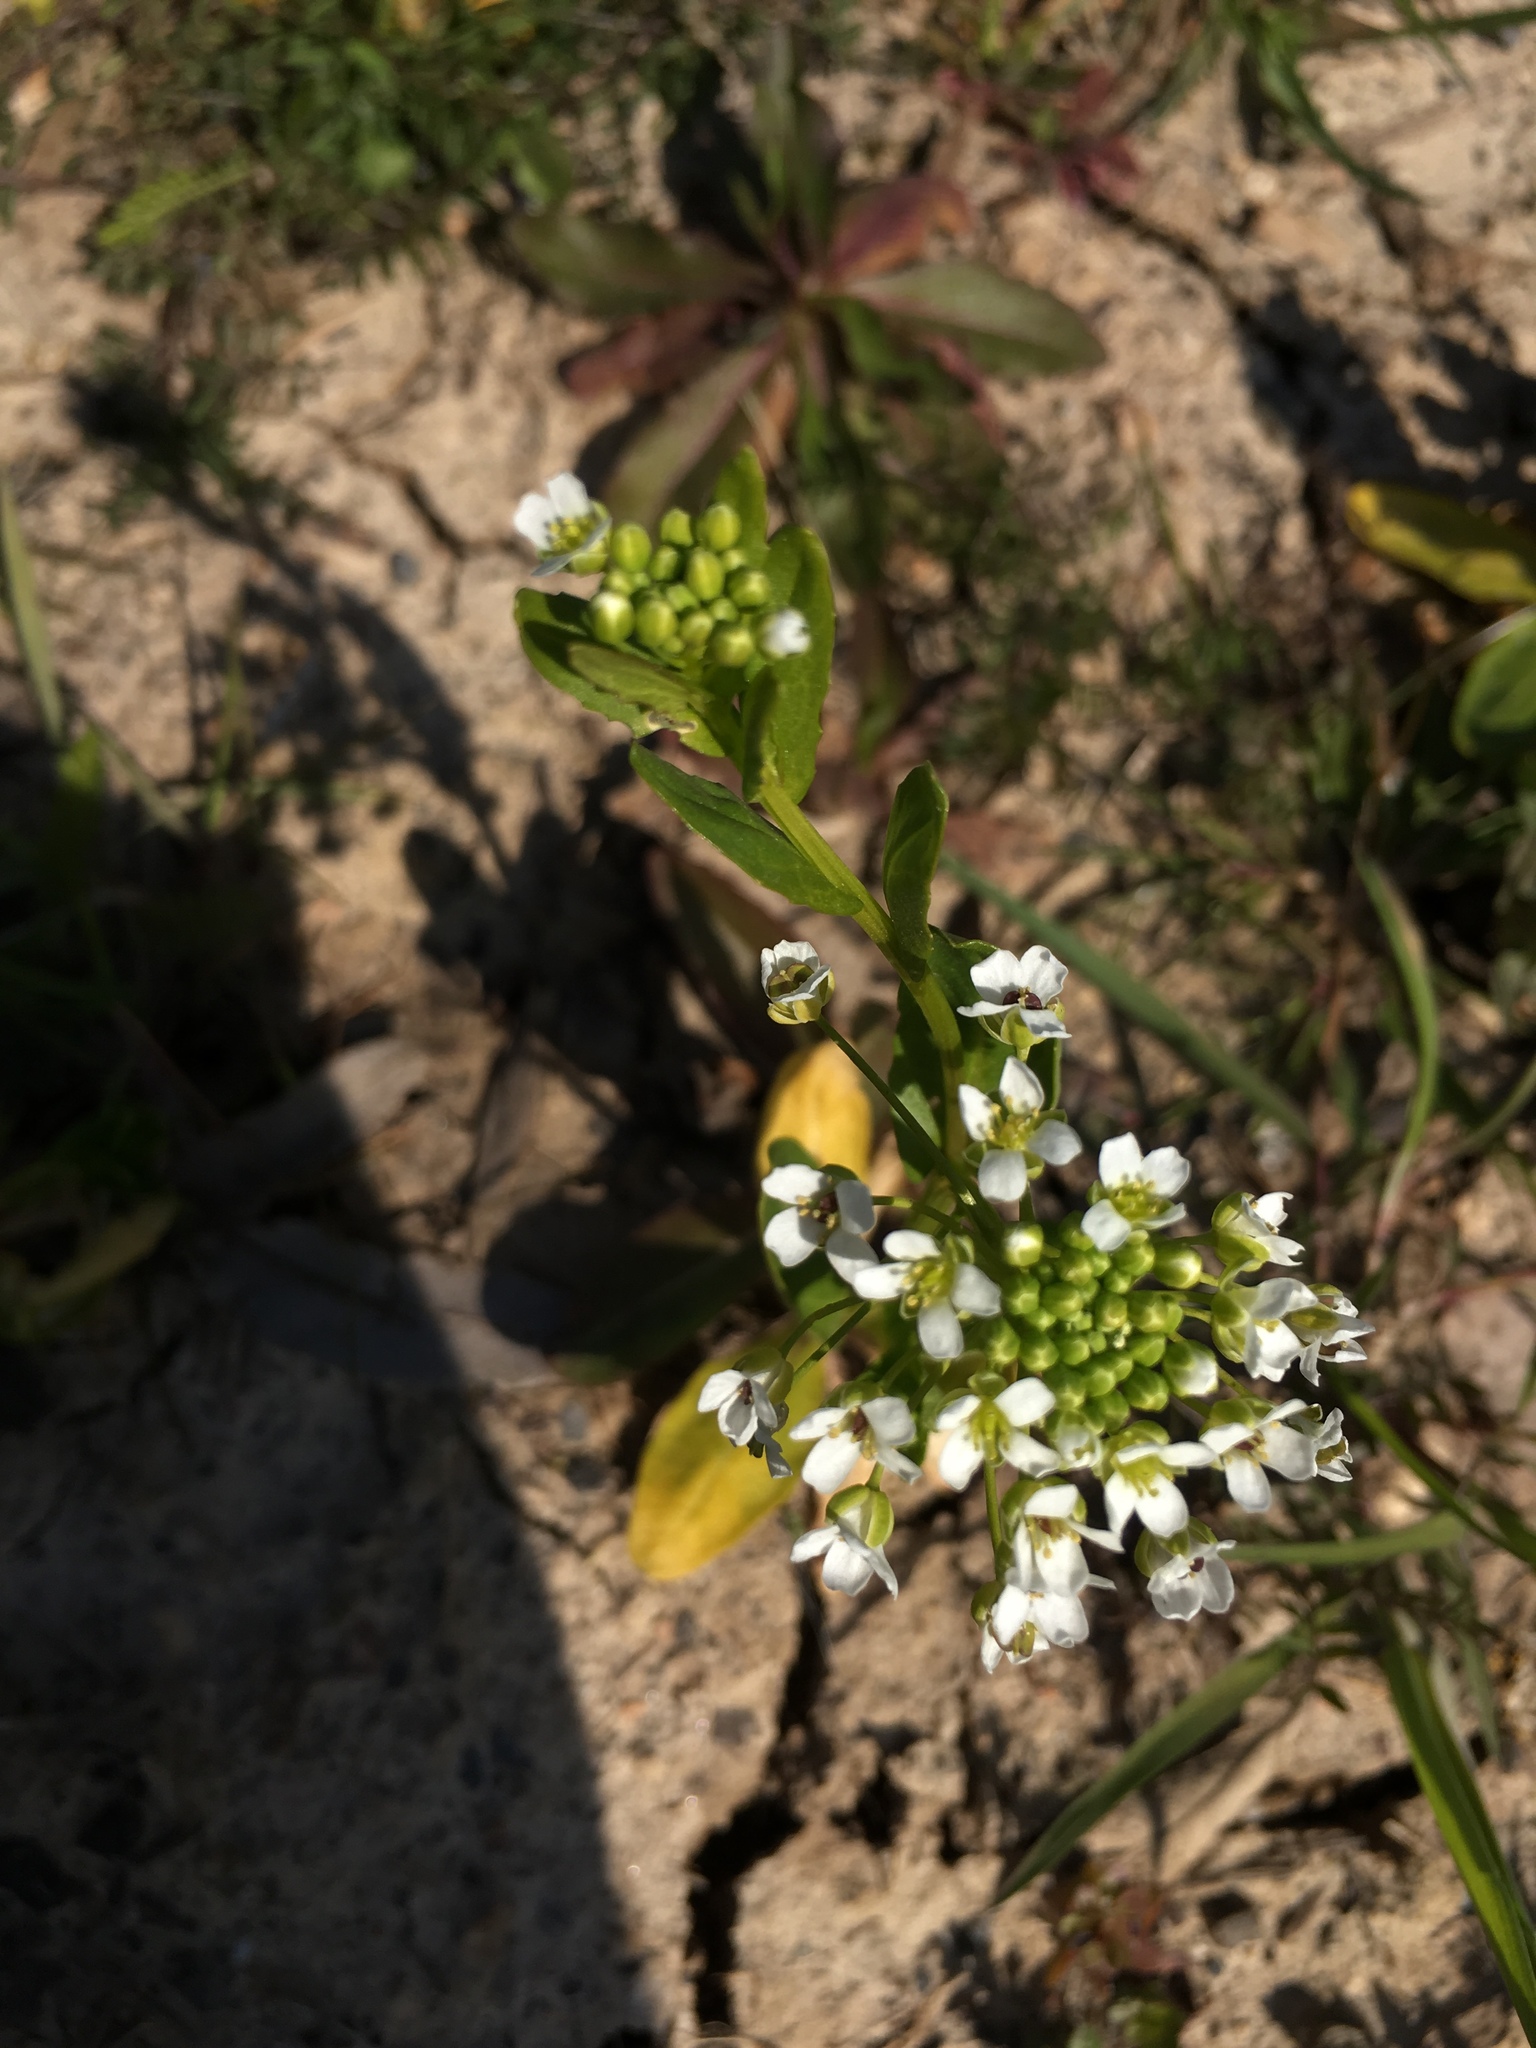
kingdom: Plantae
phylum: Tracheophyta
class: Magnoliopsida
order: Brassicales
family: Brassicaceae
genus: Thlaspi
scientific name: Thlaspi arvense
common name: Field pennycress
